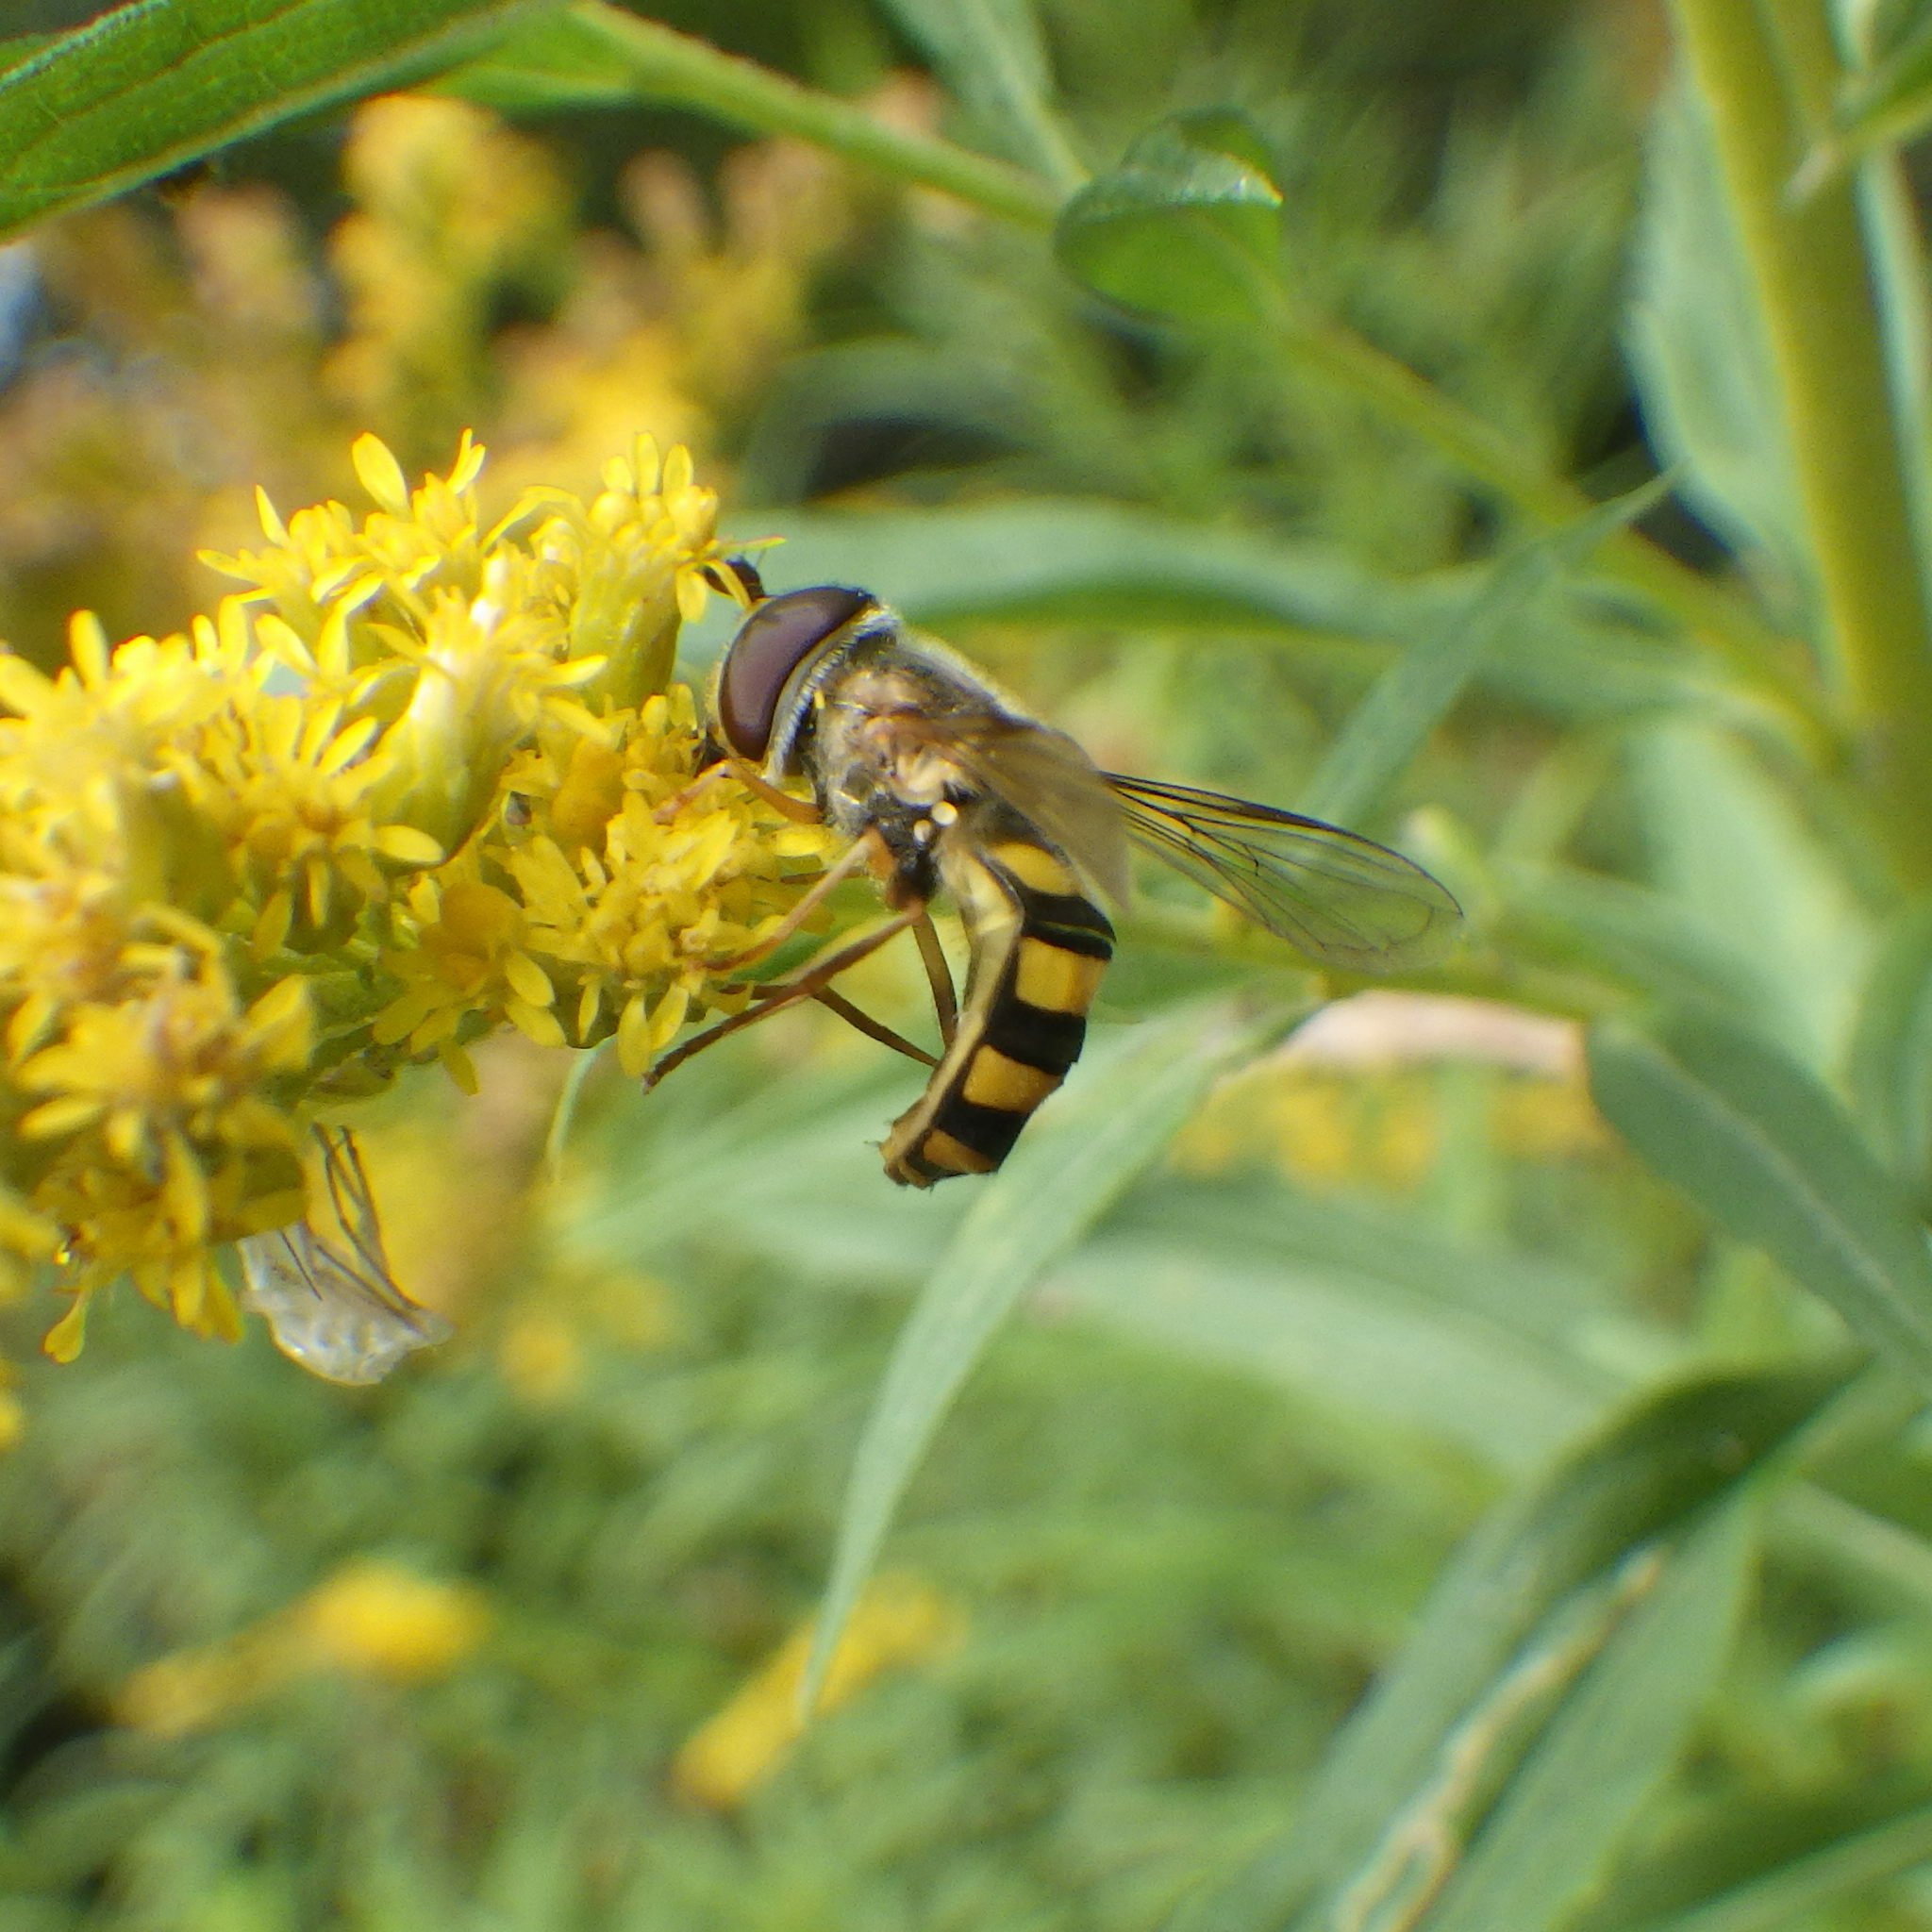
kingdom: Animalia
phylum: Arthropoda
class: Insecta
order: Diptera
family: Syrphidae
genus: Eupeodes
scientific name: Eupeodes
